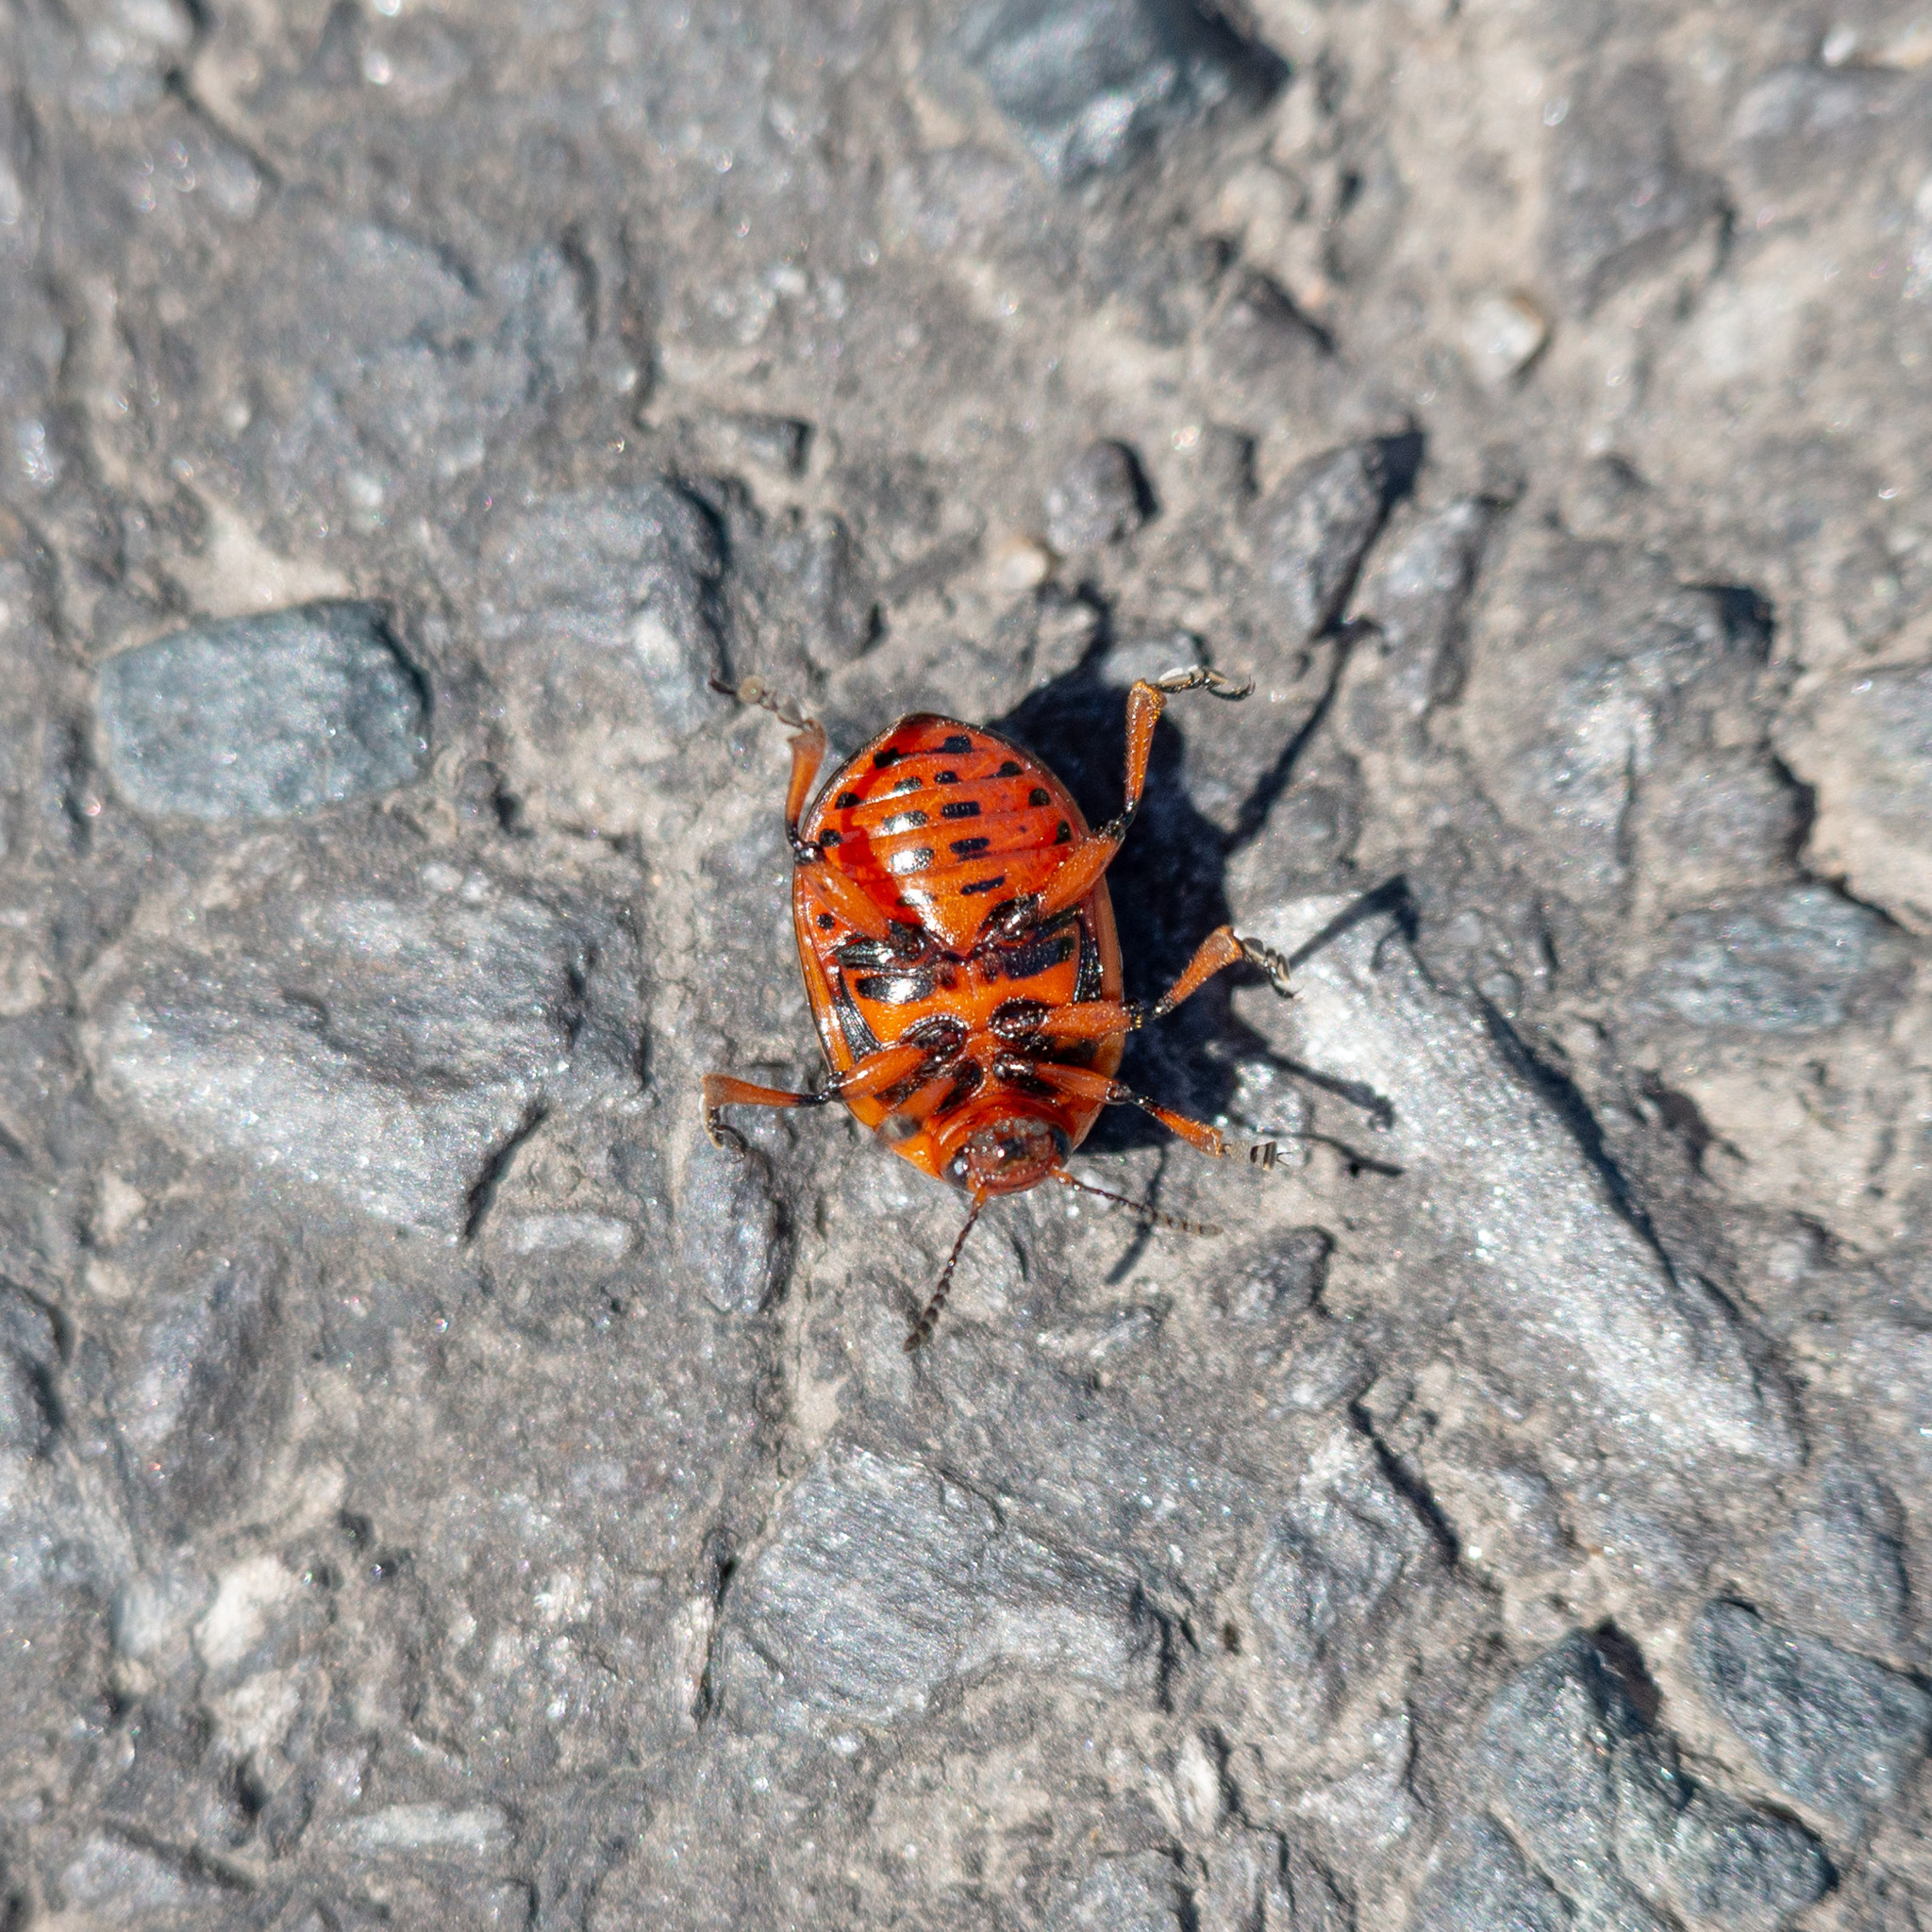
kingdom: Animalia
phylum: Arthropoda
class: Insecta
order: Coleoptera
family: Chrysomelidae
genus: Leptinotarsa
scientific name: Leptinotarsa decemlineata
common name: Colorado potato beetle
